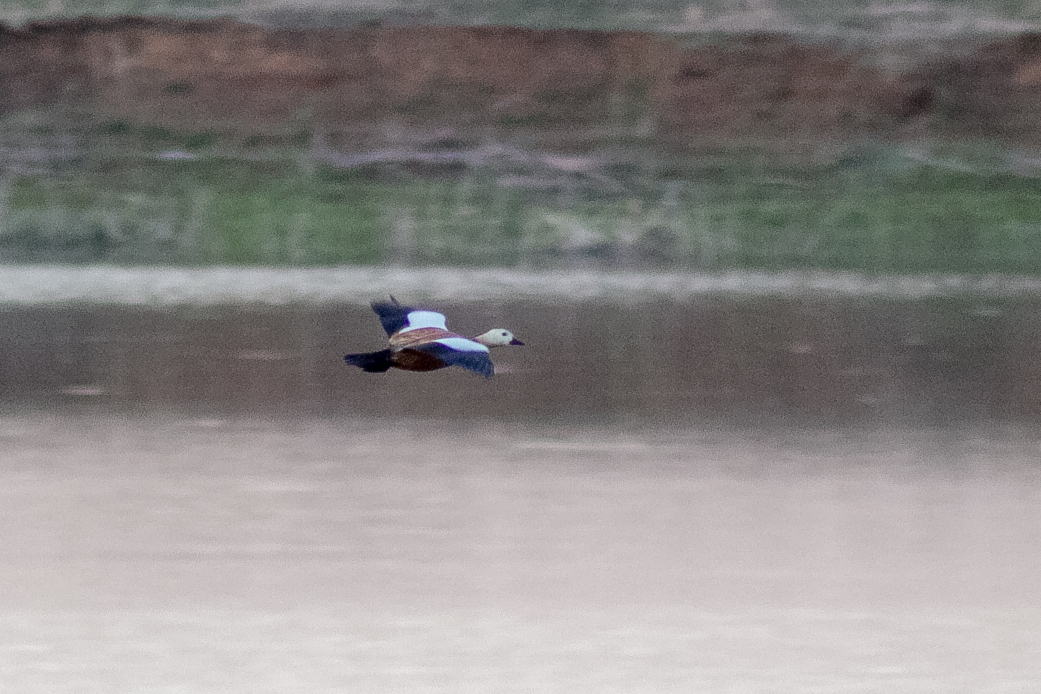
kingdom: Animalia
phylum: Chordata
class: Aves
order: Anseriformes
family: Anatidae
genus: Tadorna
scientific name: Tadorna ferruginea
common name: Ruddy shelduck
